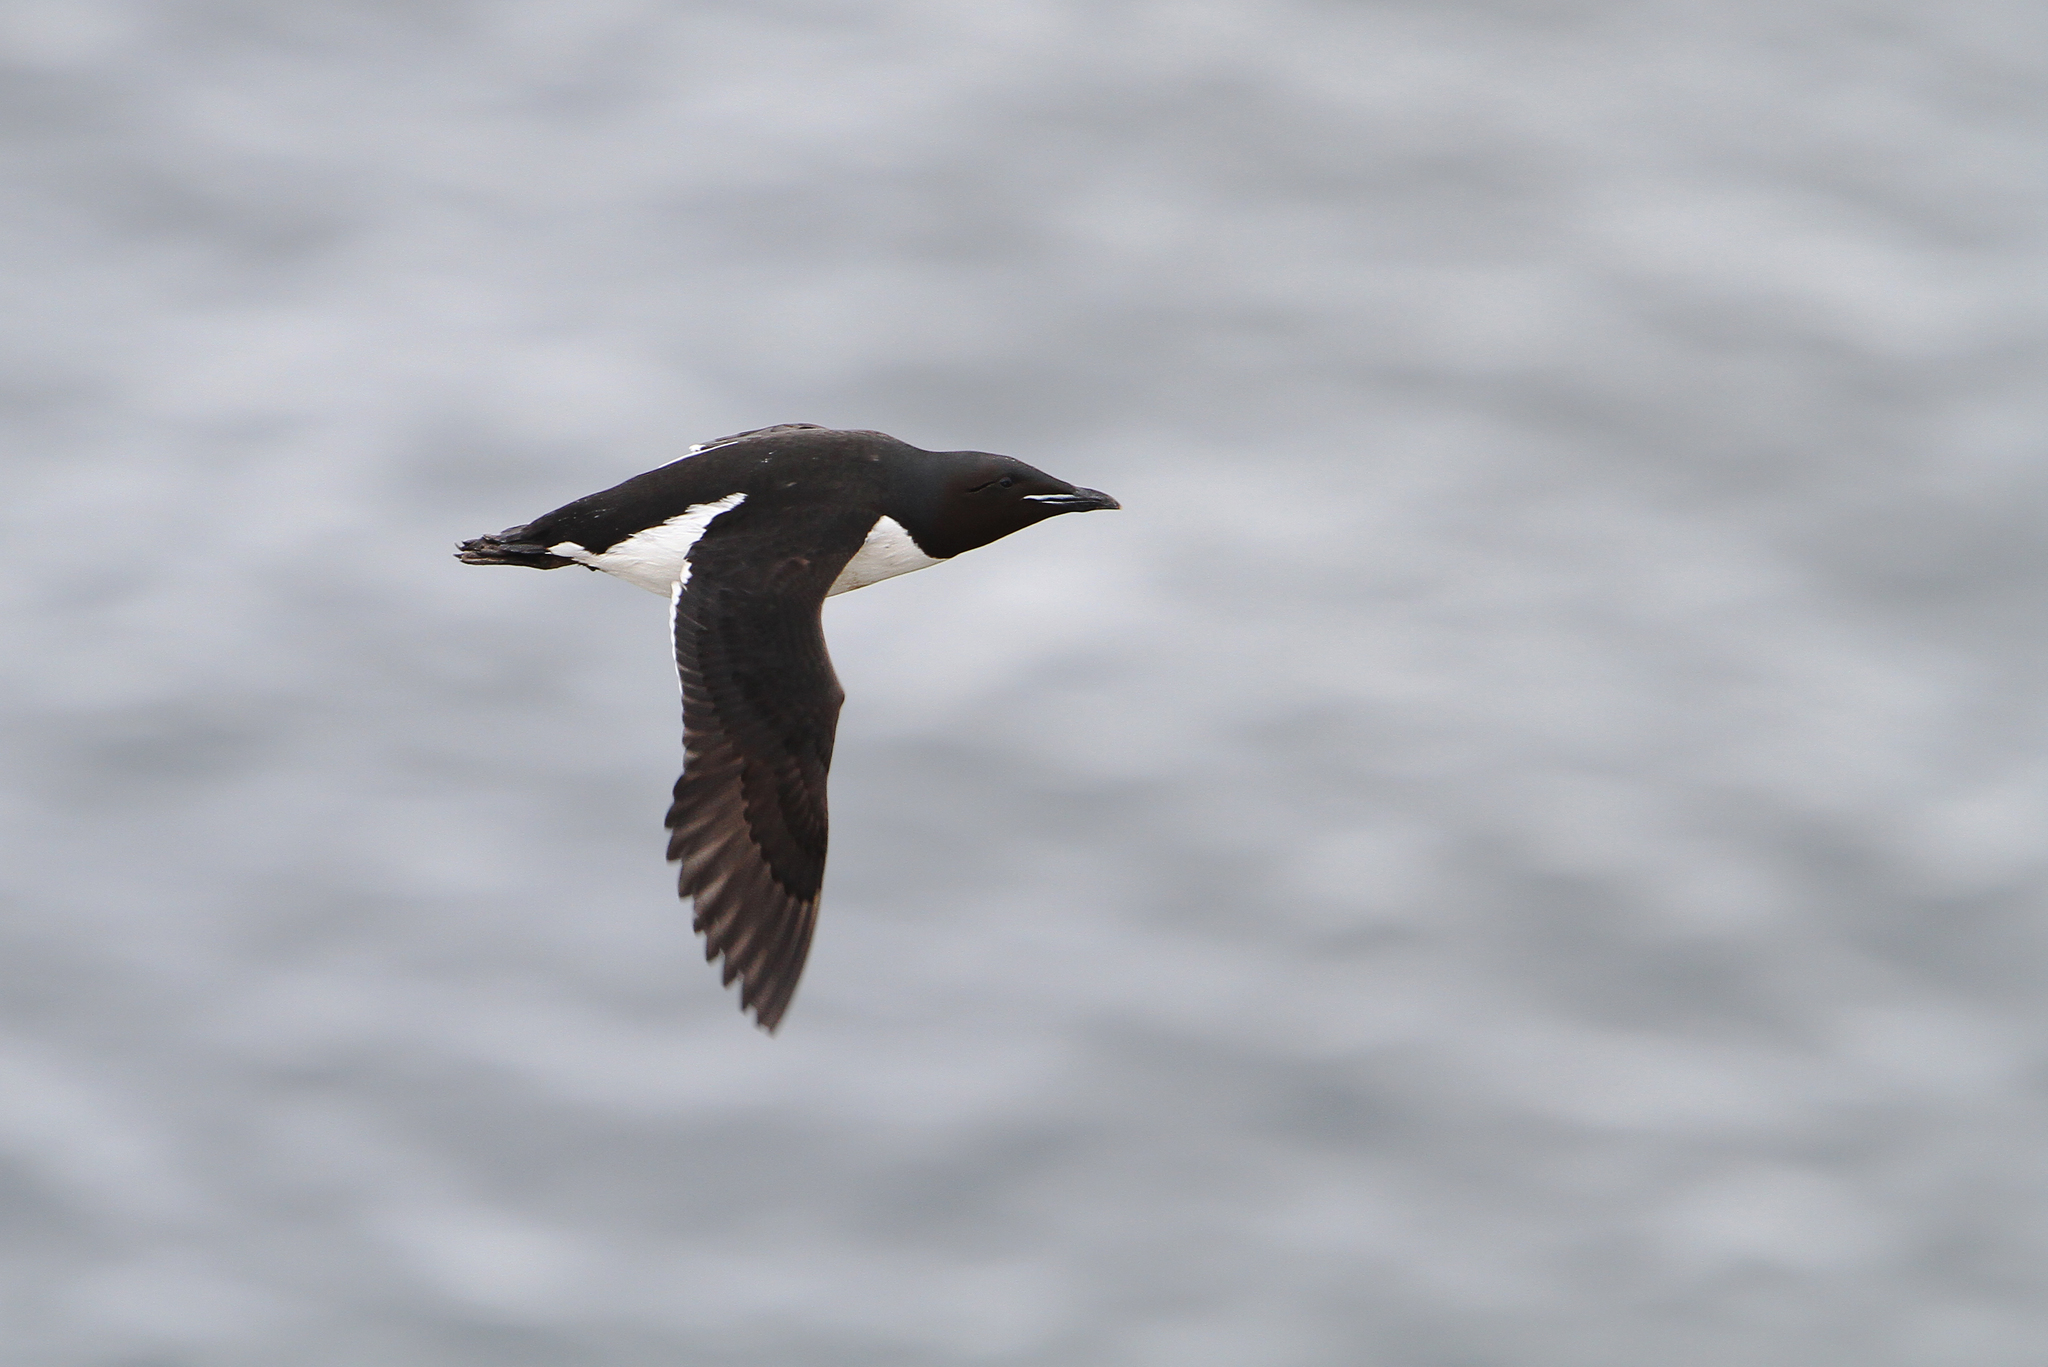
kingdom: Animalia
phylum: Chordata
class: Aves
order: Charadriiformes
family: Alcidae
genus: Uria
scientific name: Uria lomvia
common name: Thick-billed murre
